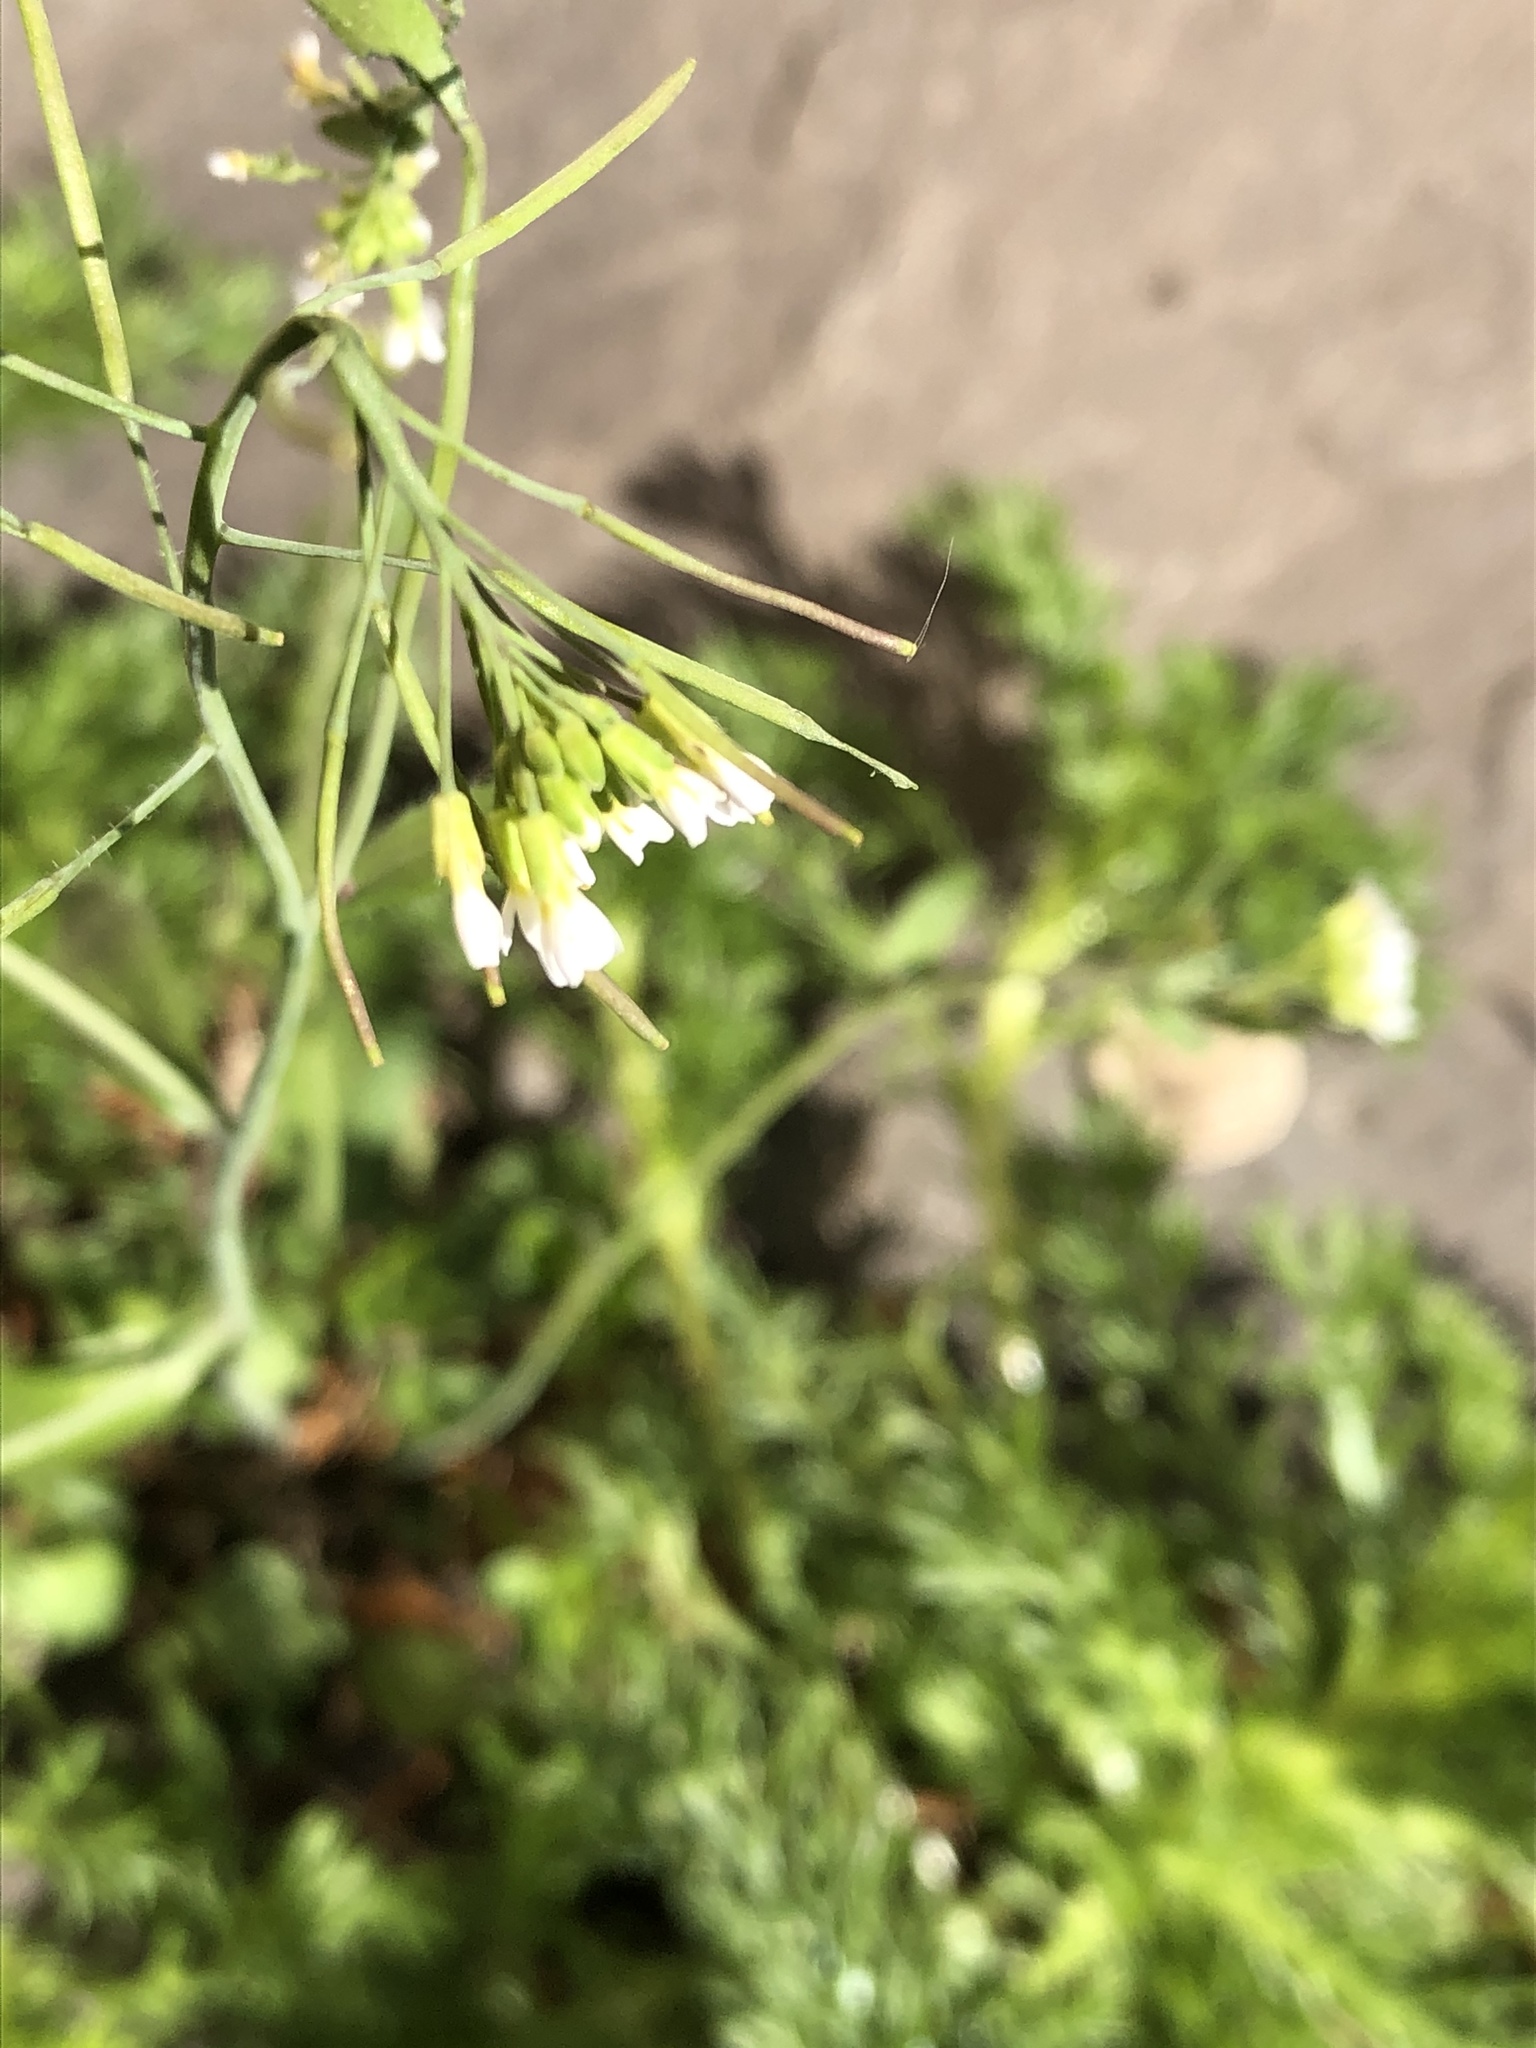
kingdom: Plantae
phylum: Tracheophyta
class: Magnoliopsida
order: Brassicales
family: Brassicaceae
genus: Arabidopsis
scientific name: Arabidopsis thaliana
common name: Thale cress
